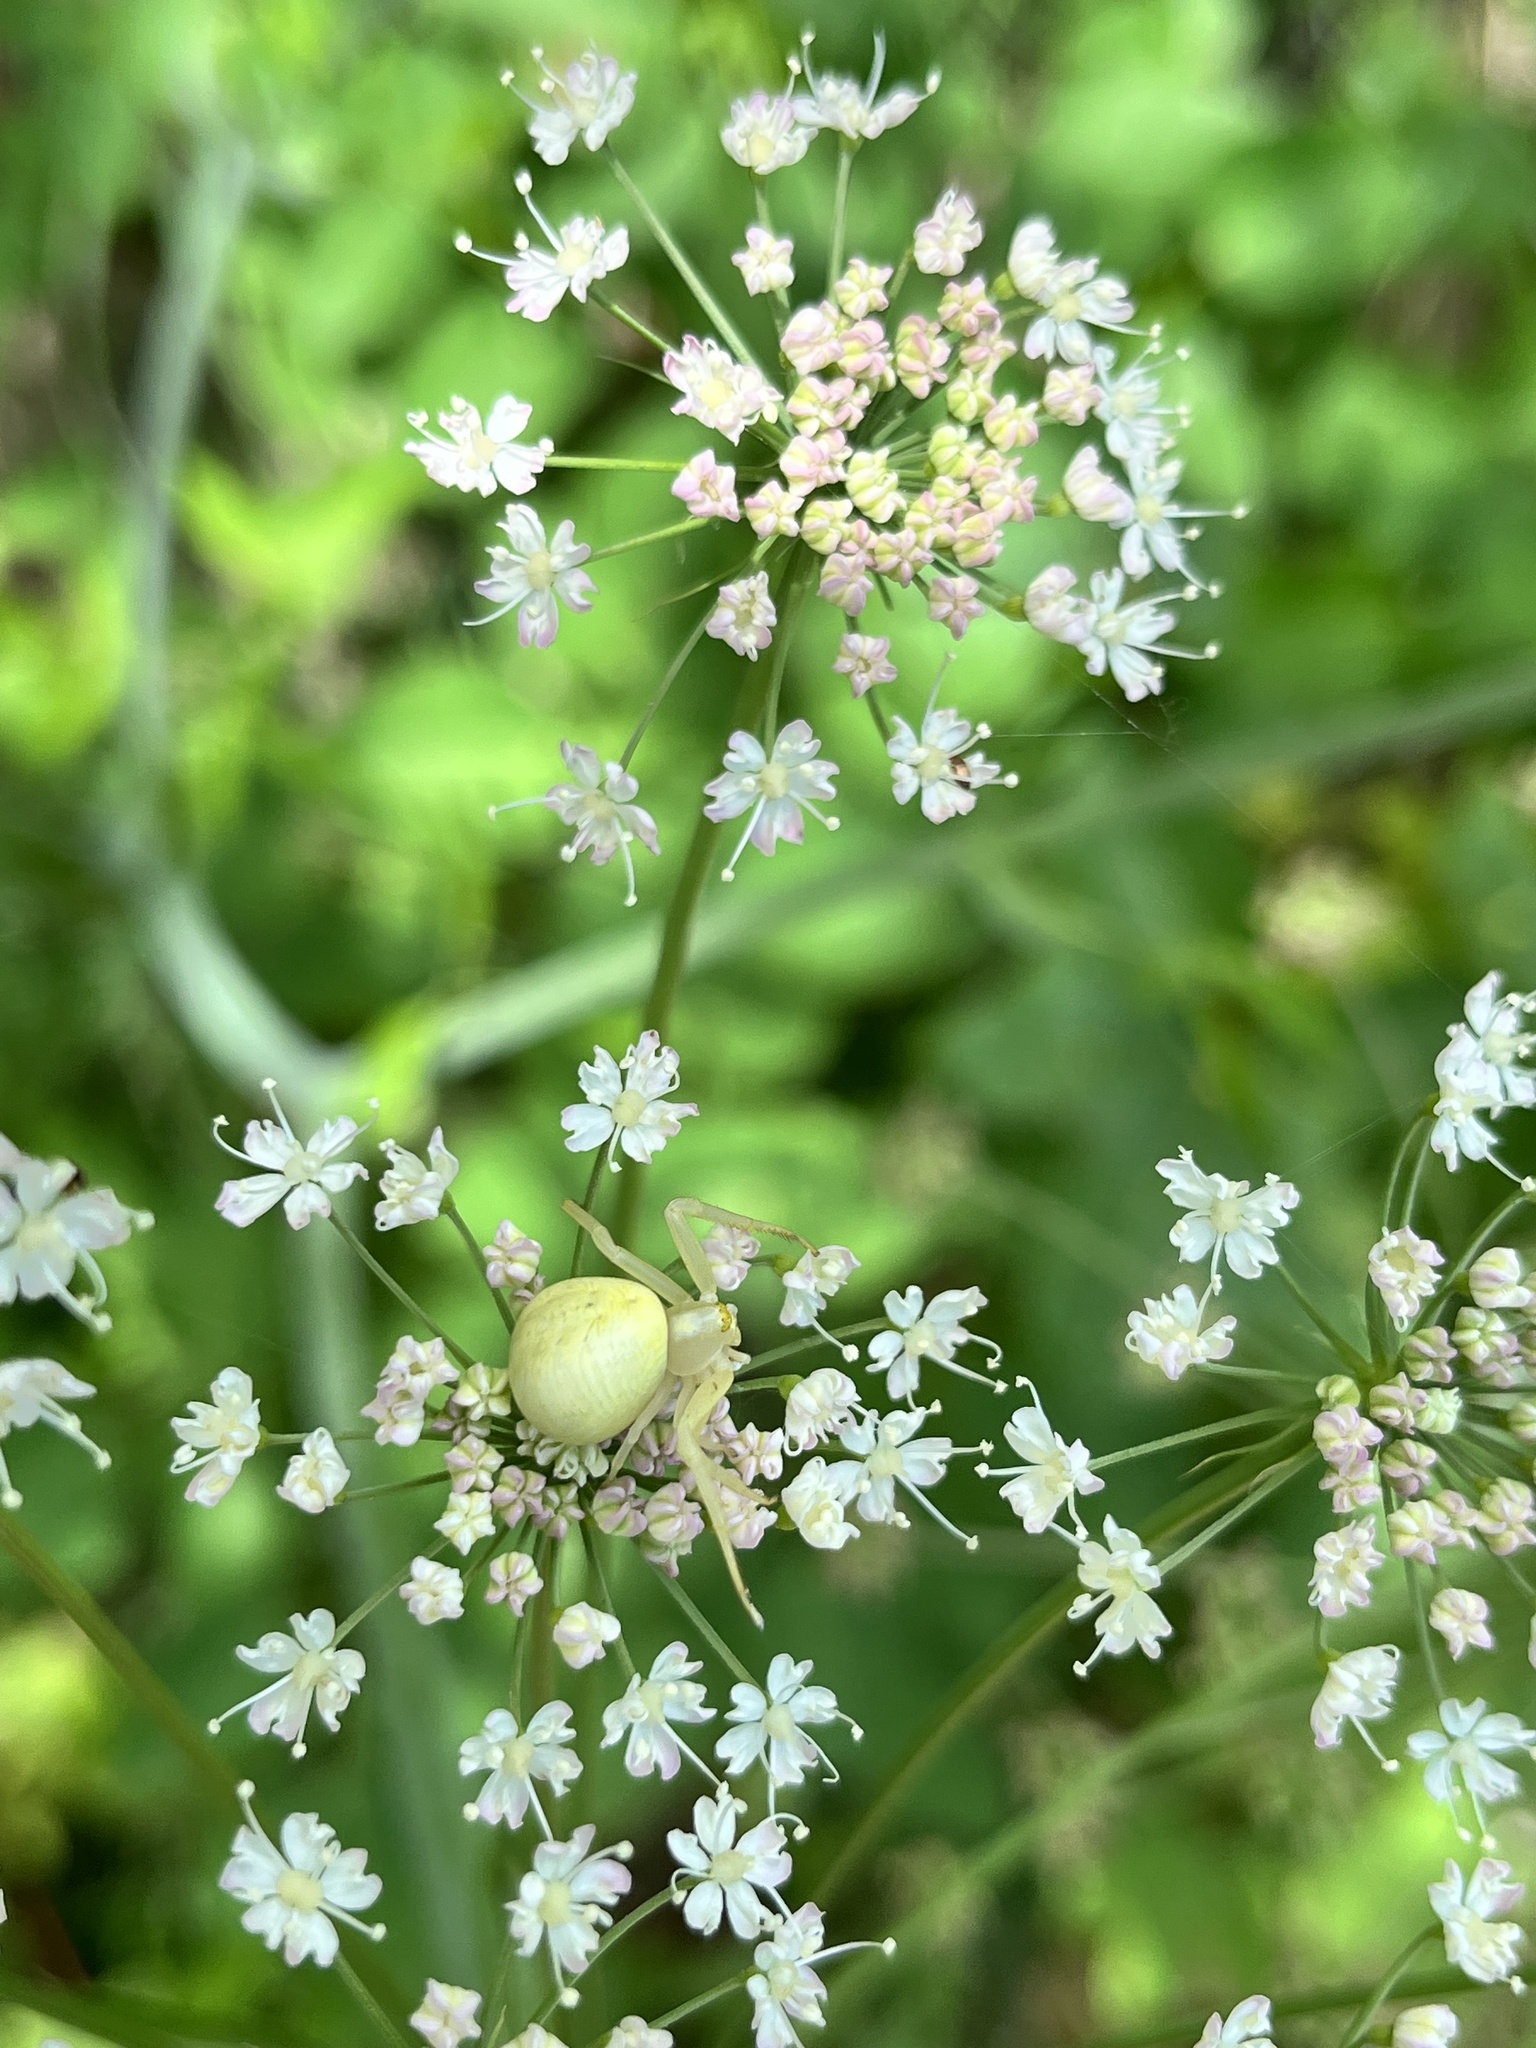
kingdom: Animalia
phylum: Arthropoda
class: Arachnida
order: Araneae
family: Thomisidae
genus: Misumena
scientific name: Misumena vatia
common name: Goldenrod crab spider
